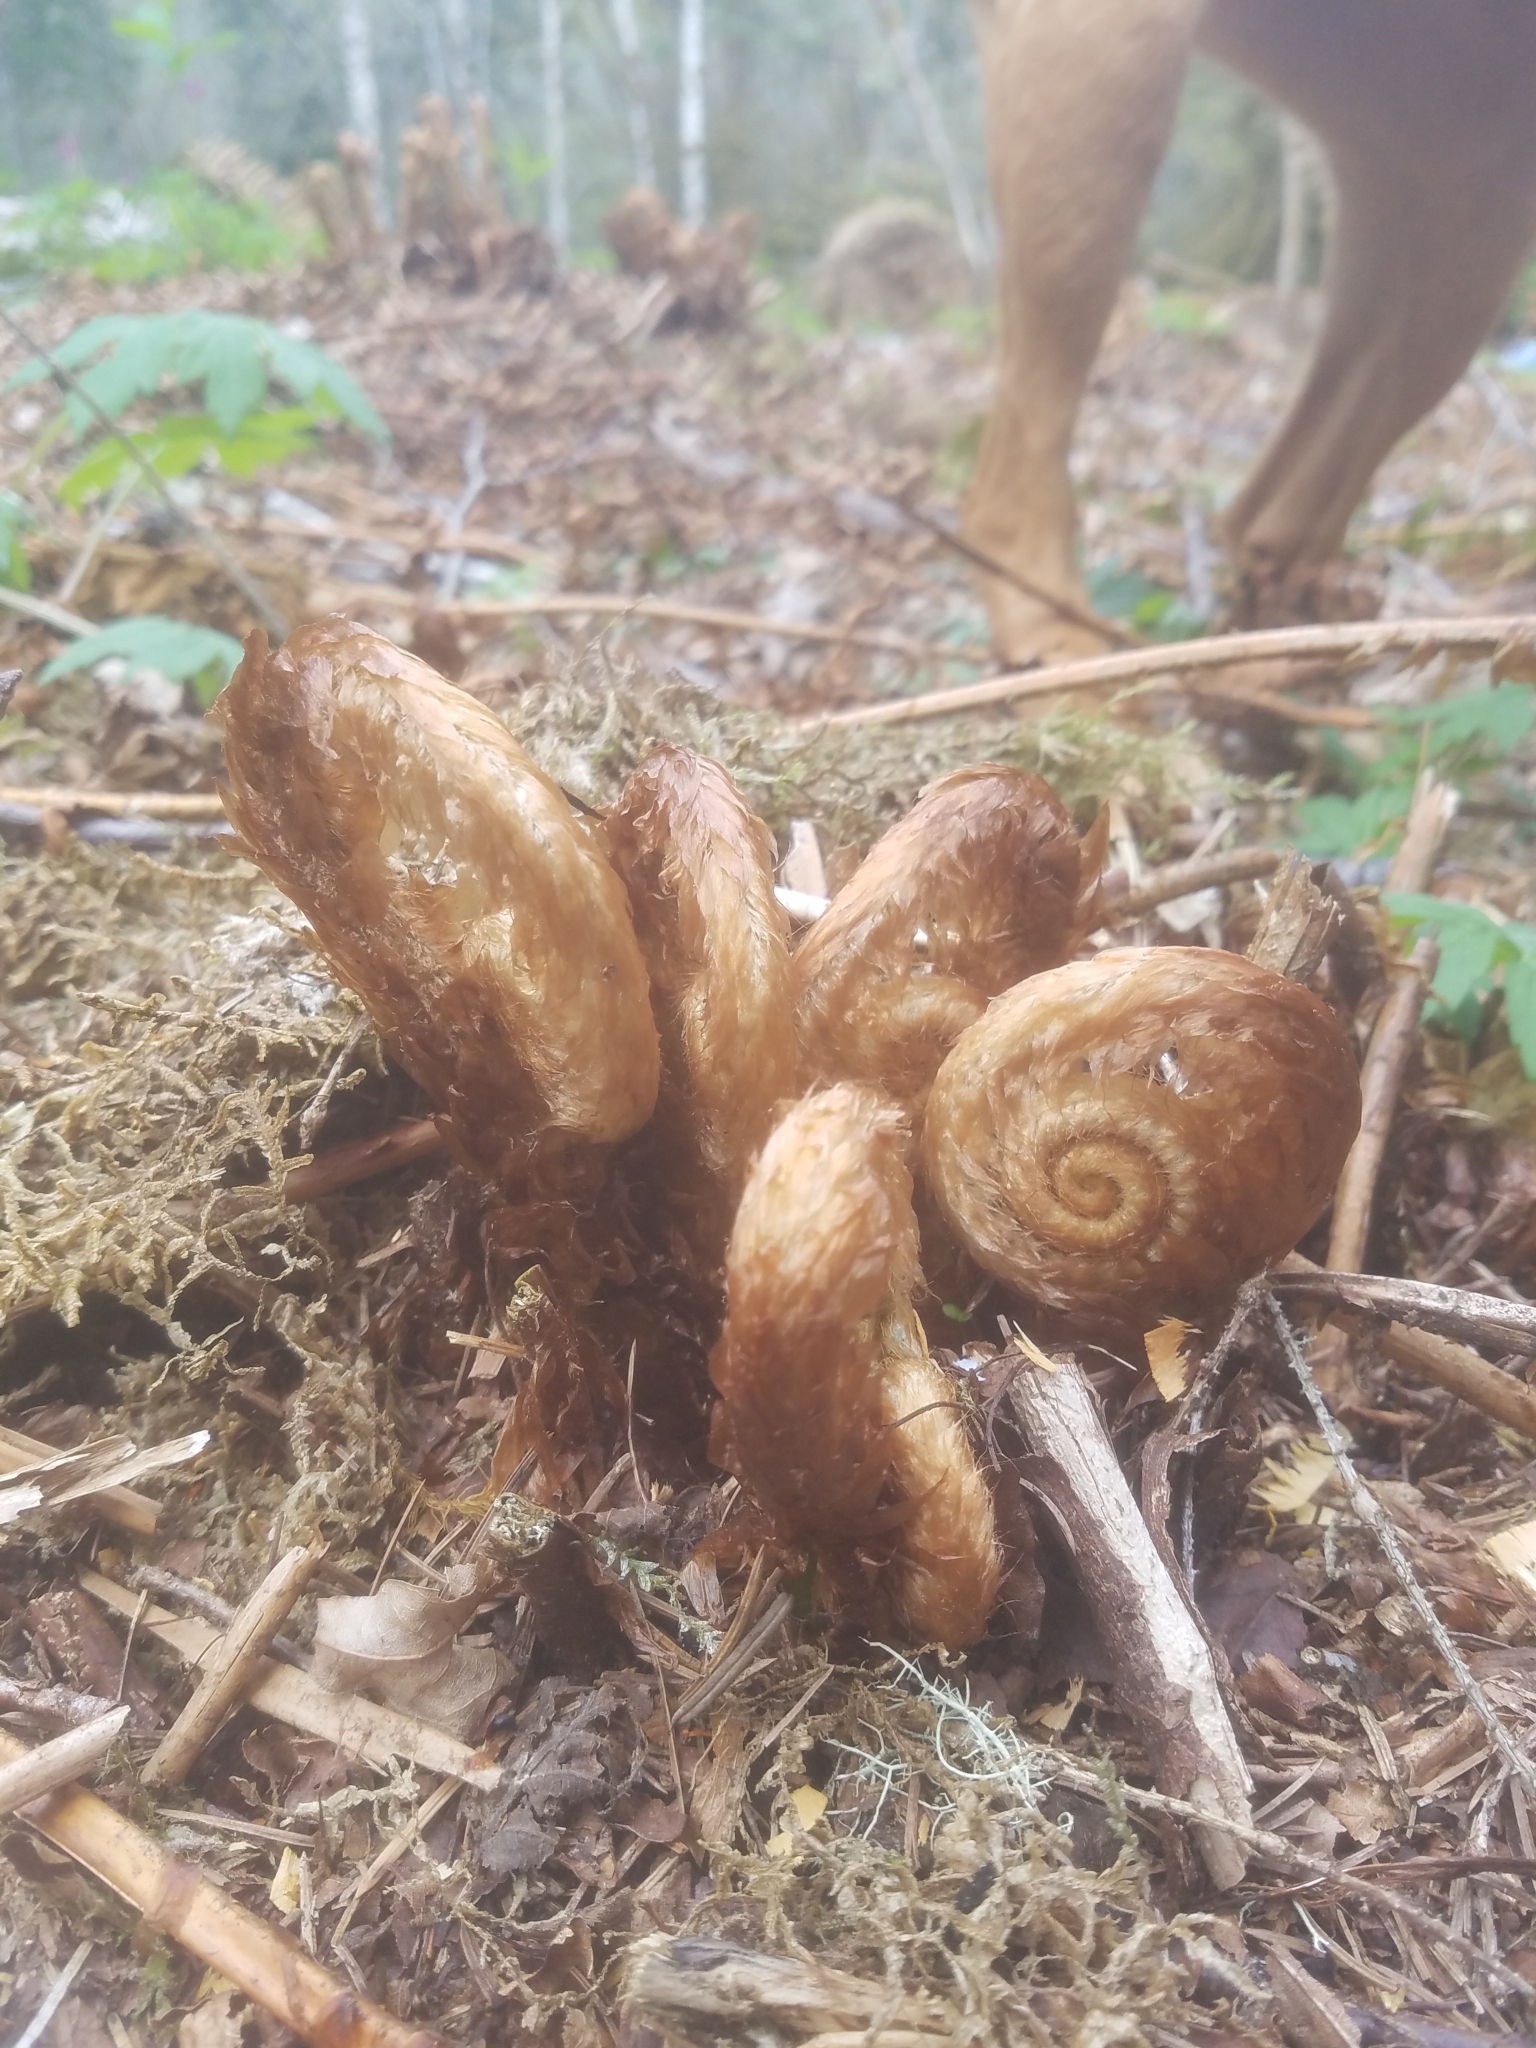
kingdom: Plantae
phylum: Tracheophyta
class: Polypodiopsida
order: Polypodiales
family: Dryopteridaceae
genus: Polystichum
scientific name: Polystichum munitum
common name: Western sword-fern
